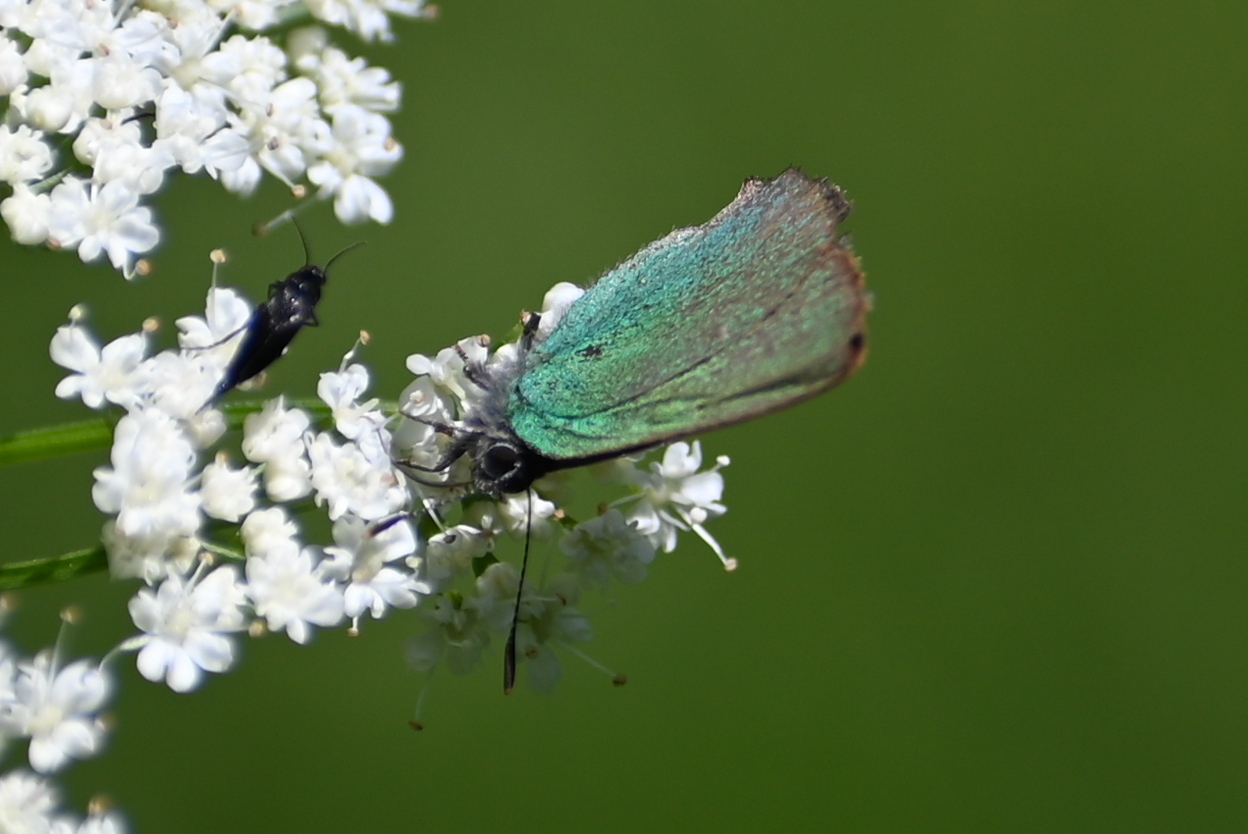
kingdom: Animalia
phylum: Arthropoda
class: Insecta
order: Lepidoptera
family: Lycaenidae
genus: Callophrys
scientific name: Callophrys rubi
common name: Green hairstreak
